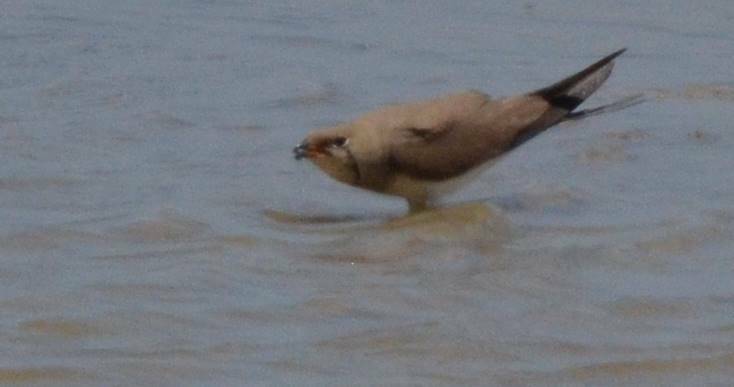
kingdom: Animalia
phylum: Chordata
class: Aves
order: Charadriiformes
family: Glareolidae
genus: Glareola
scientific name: Glareola pratincola
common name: Collared pratincole
